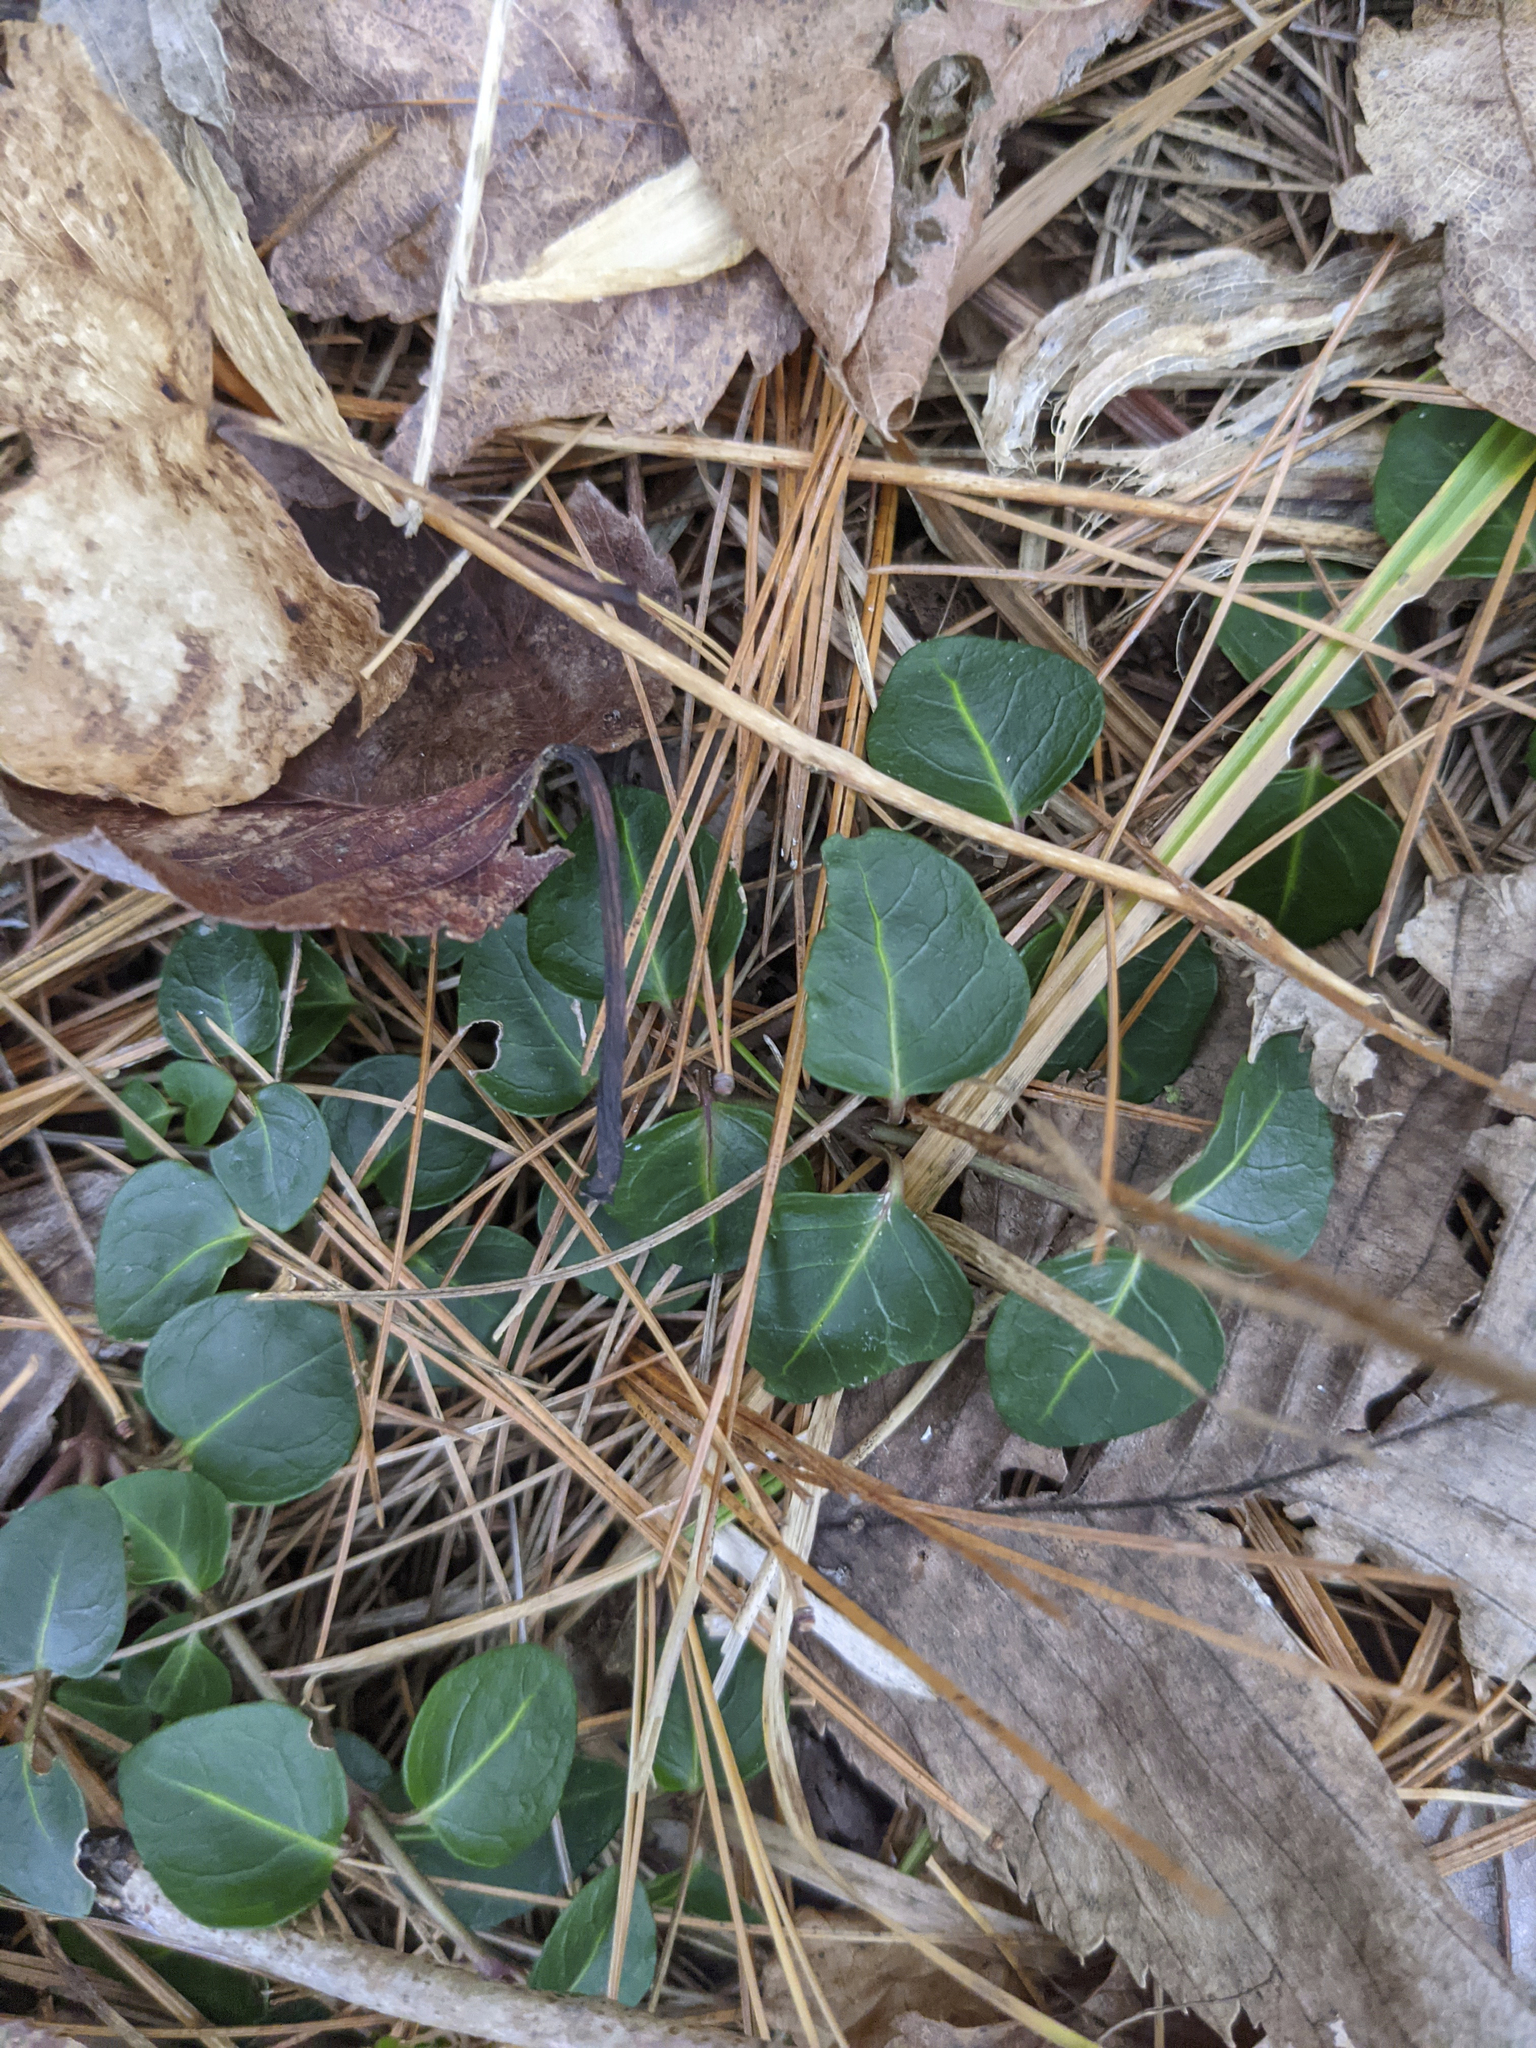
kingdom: Plantae
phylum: Tracheophyta
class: Magnoliopsida
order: Gentianales
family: Rubiaceae
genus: Mitchella
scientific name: Mitchella repens
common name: Partridge-berry
